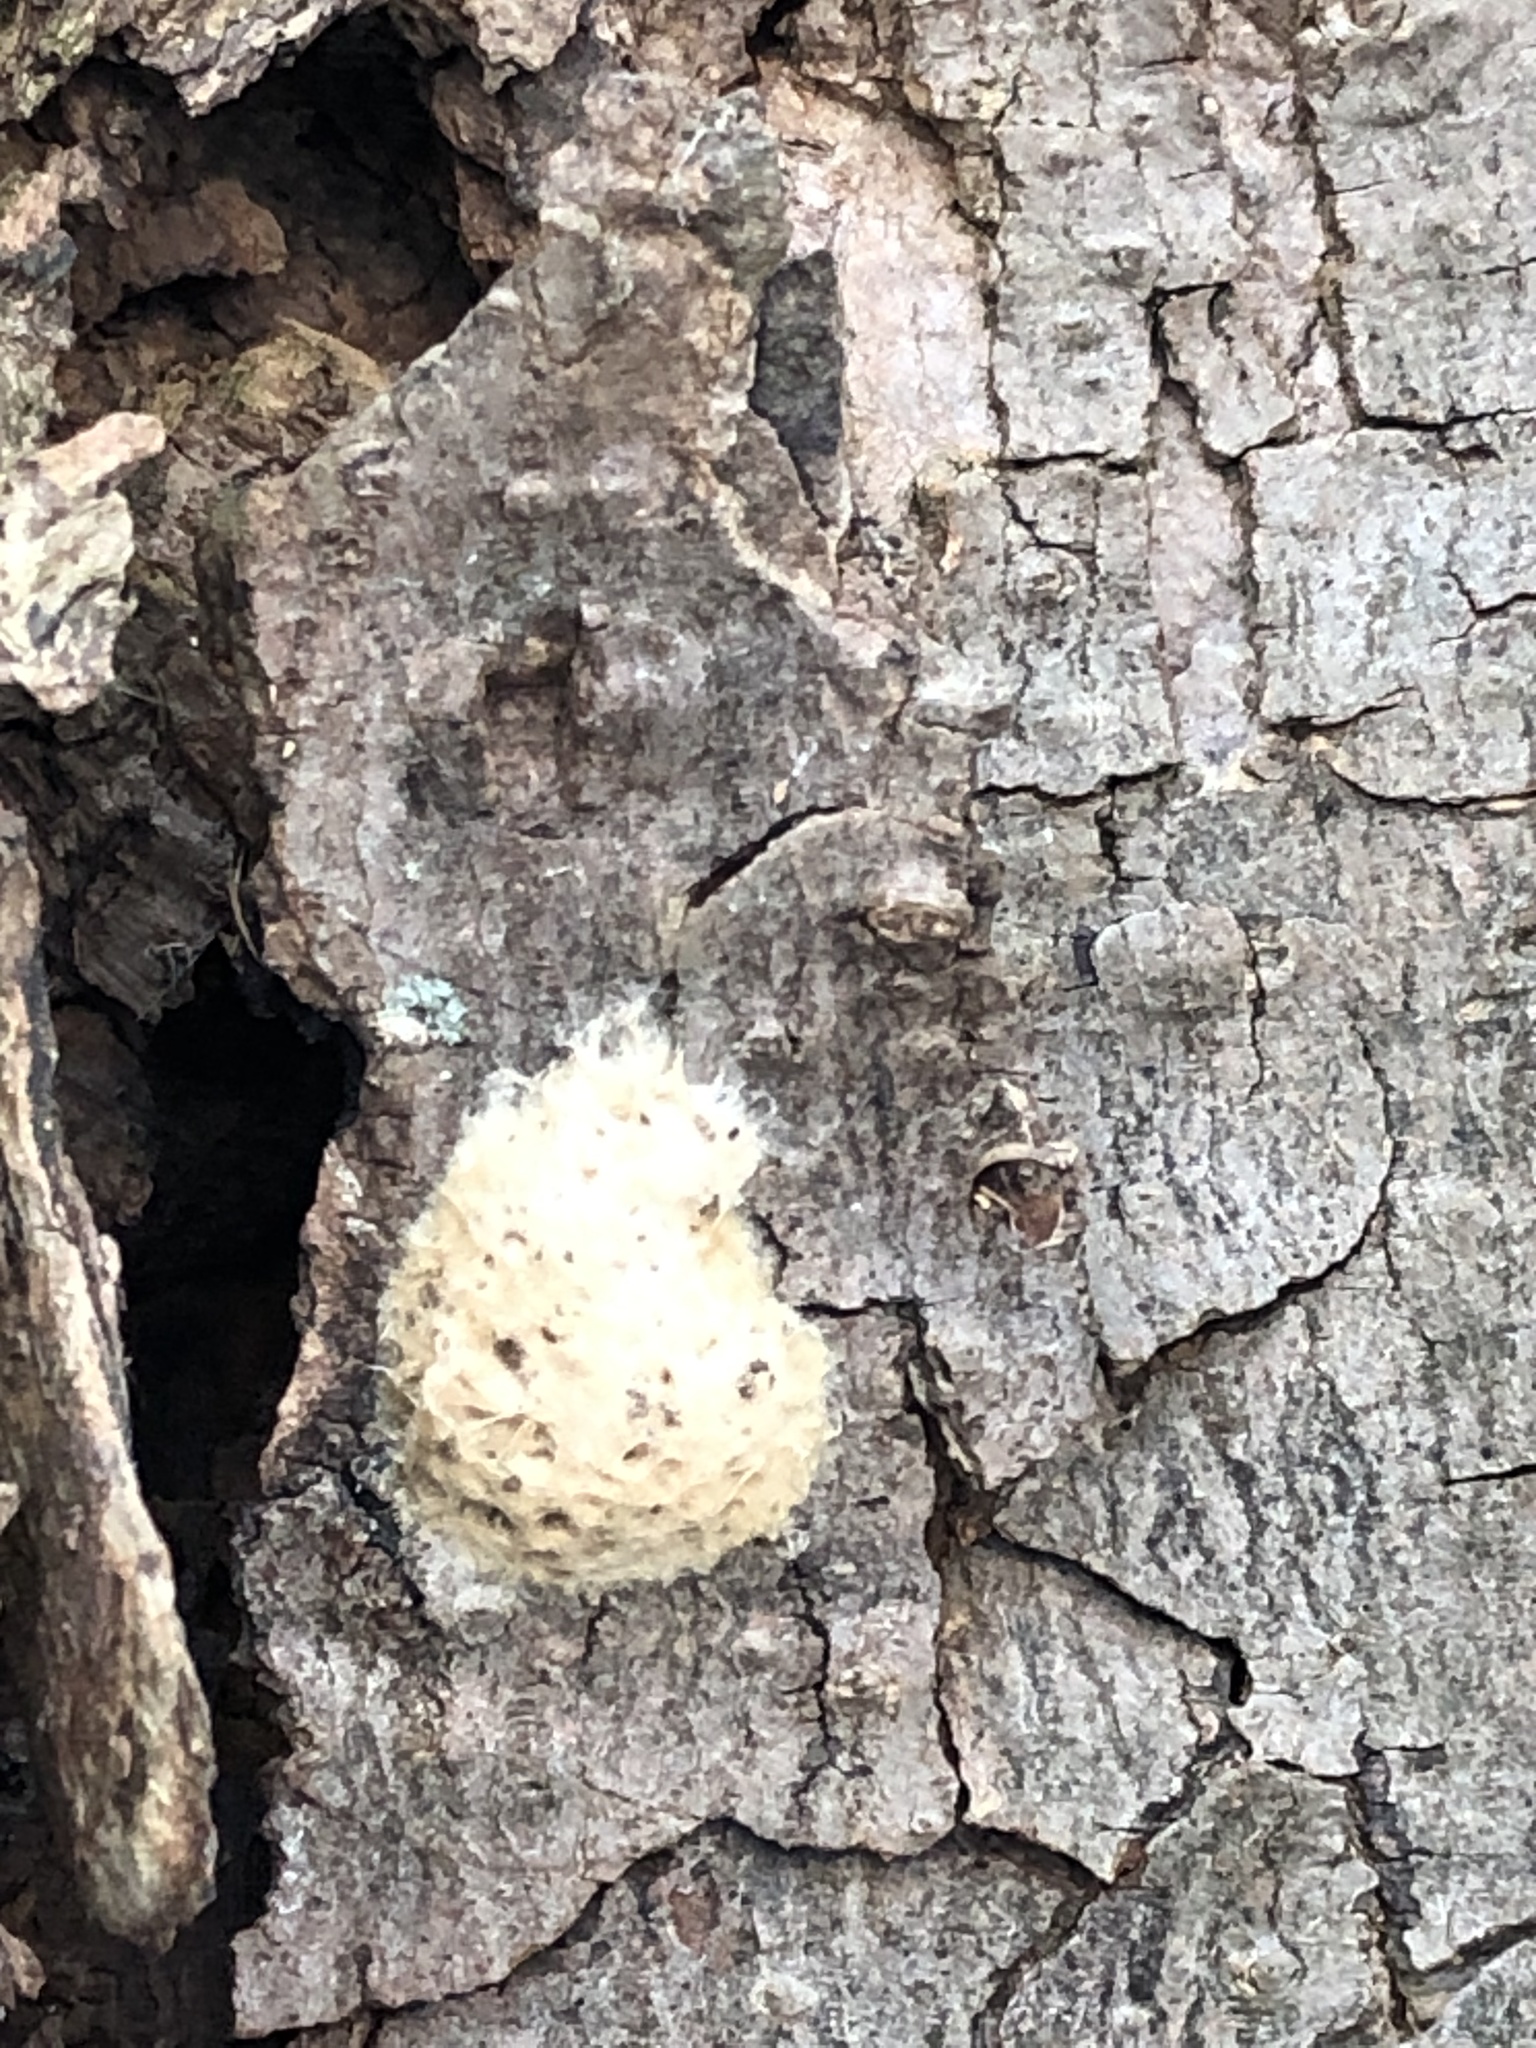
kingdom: Animalia
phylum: Arthropoda
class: Insecta
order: Lepidoptera
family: Erebidae
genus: Lymantria
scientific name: Lymantria dispar
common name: Gypsy moth
